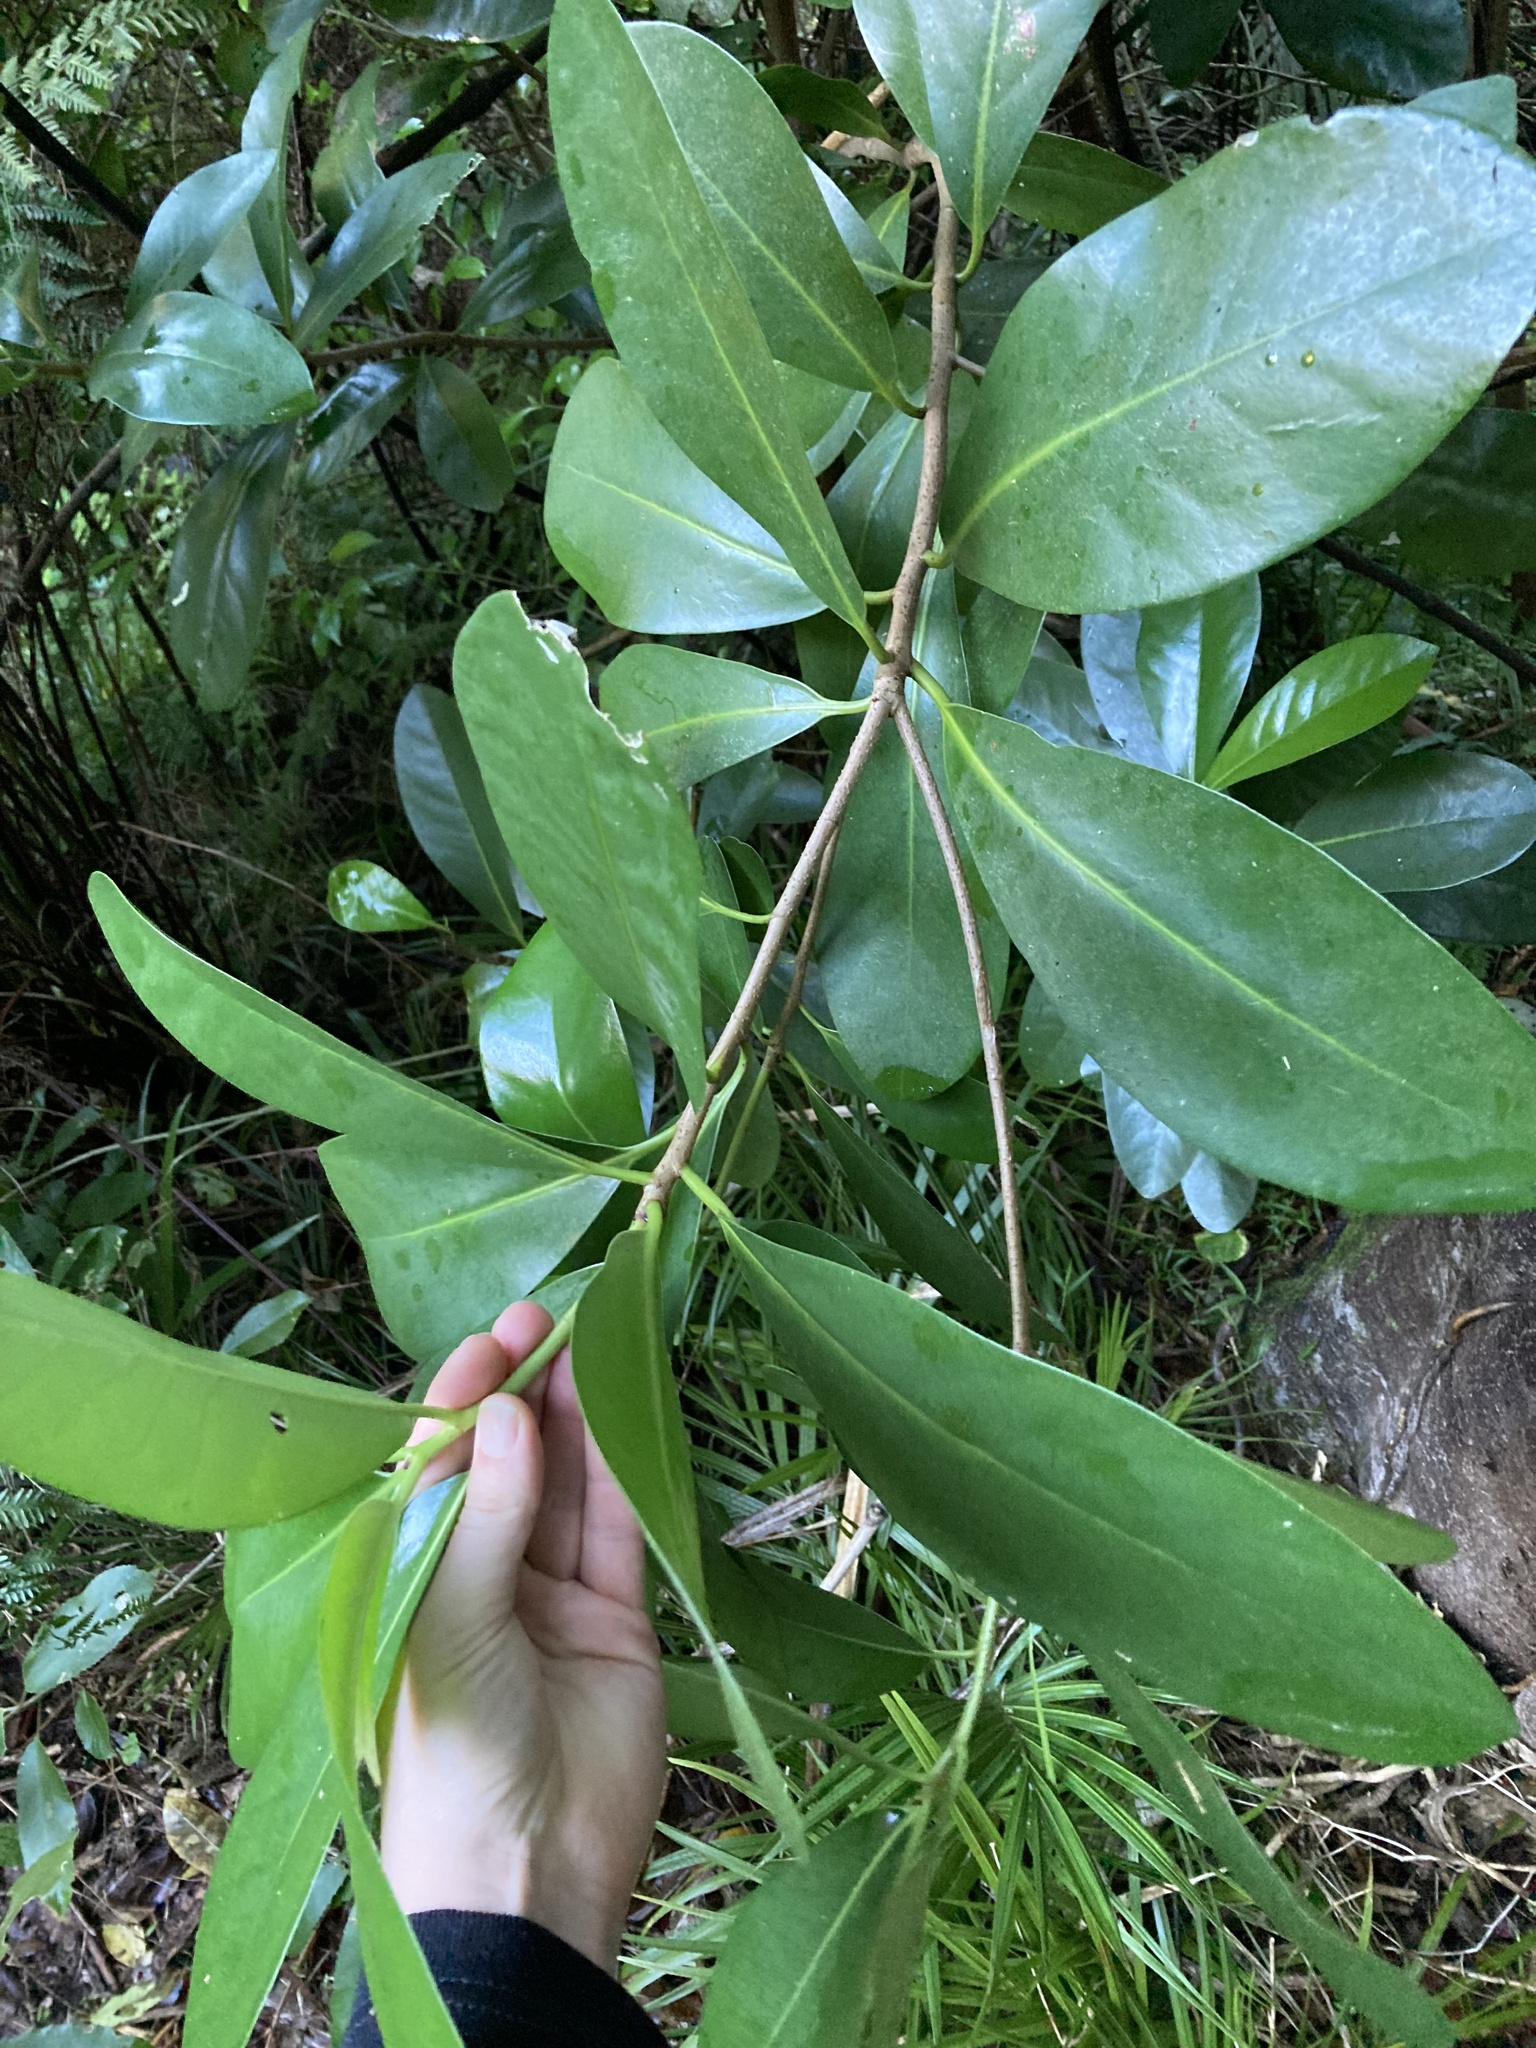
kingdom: Plantae
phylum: Tracheophyta
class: Magnoliopsida
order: Cucurbitales
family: Corynocarpaceae
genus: Corynocarpus
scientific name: Corynocarpus laevigatus
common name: New zealand laurel
